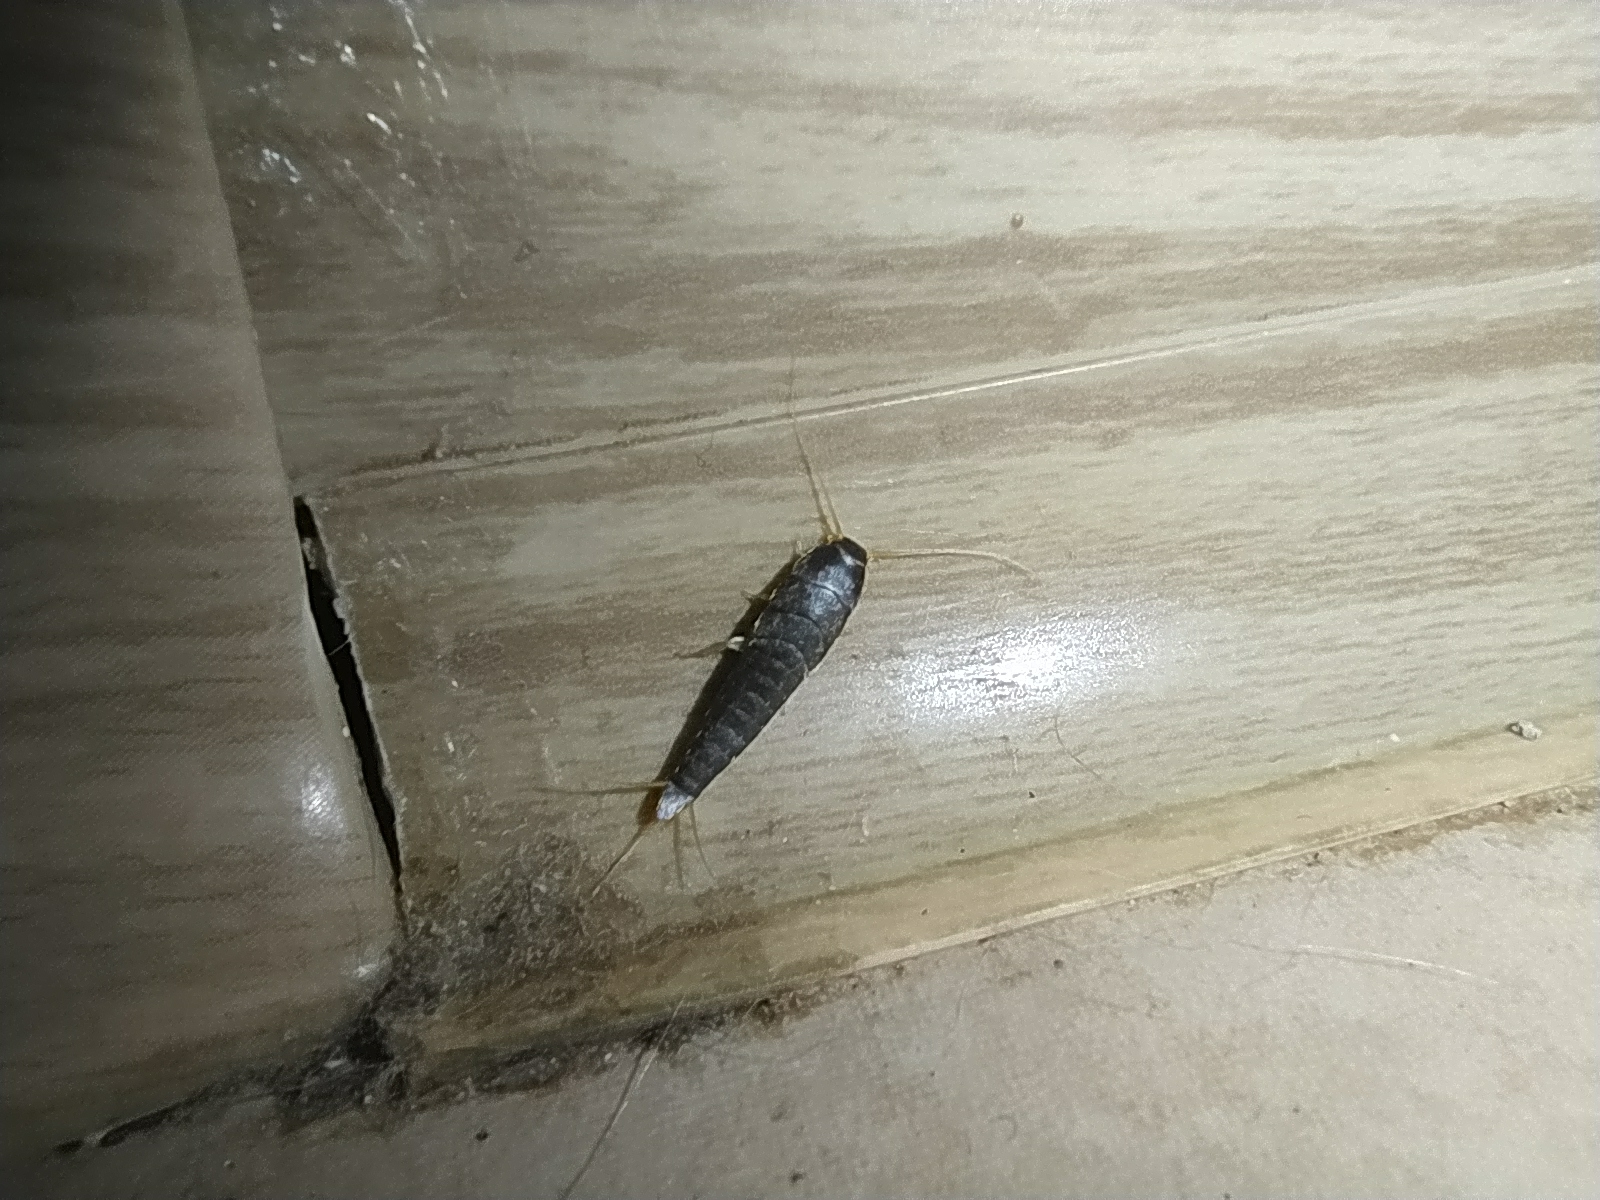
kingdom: Animalia
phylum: Arthropoda
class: Insecta
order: Zygentoma
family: Lepismatidae
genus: Lepisma
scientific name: Lepisma saccharinum
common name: Silverfish
